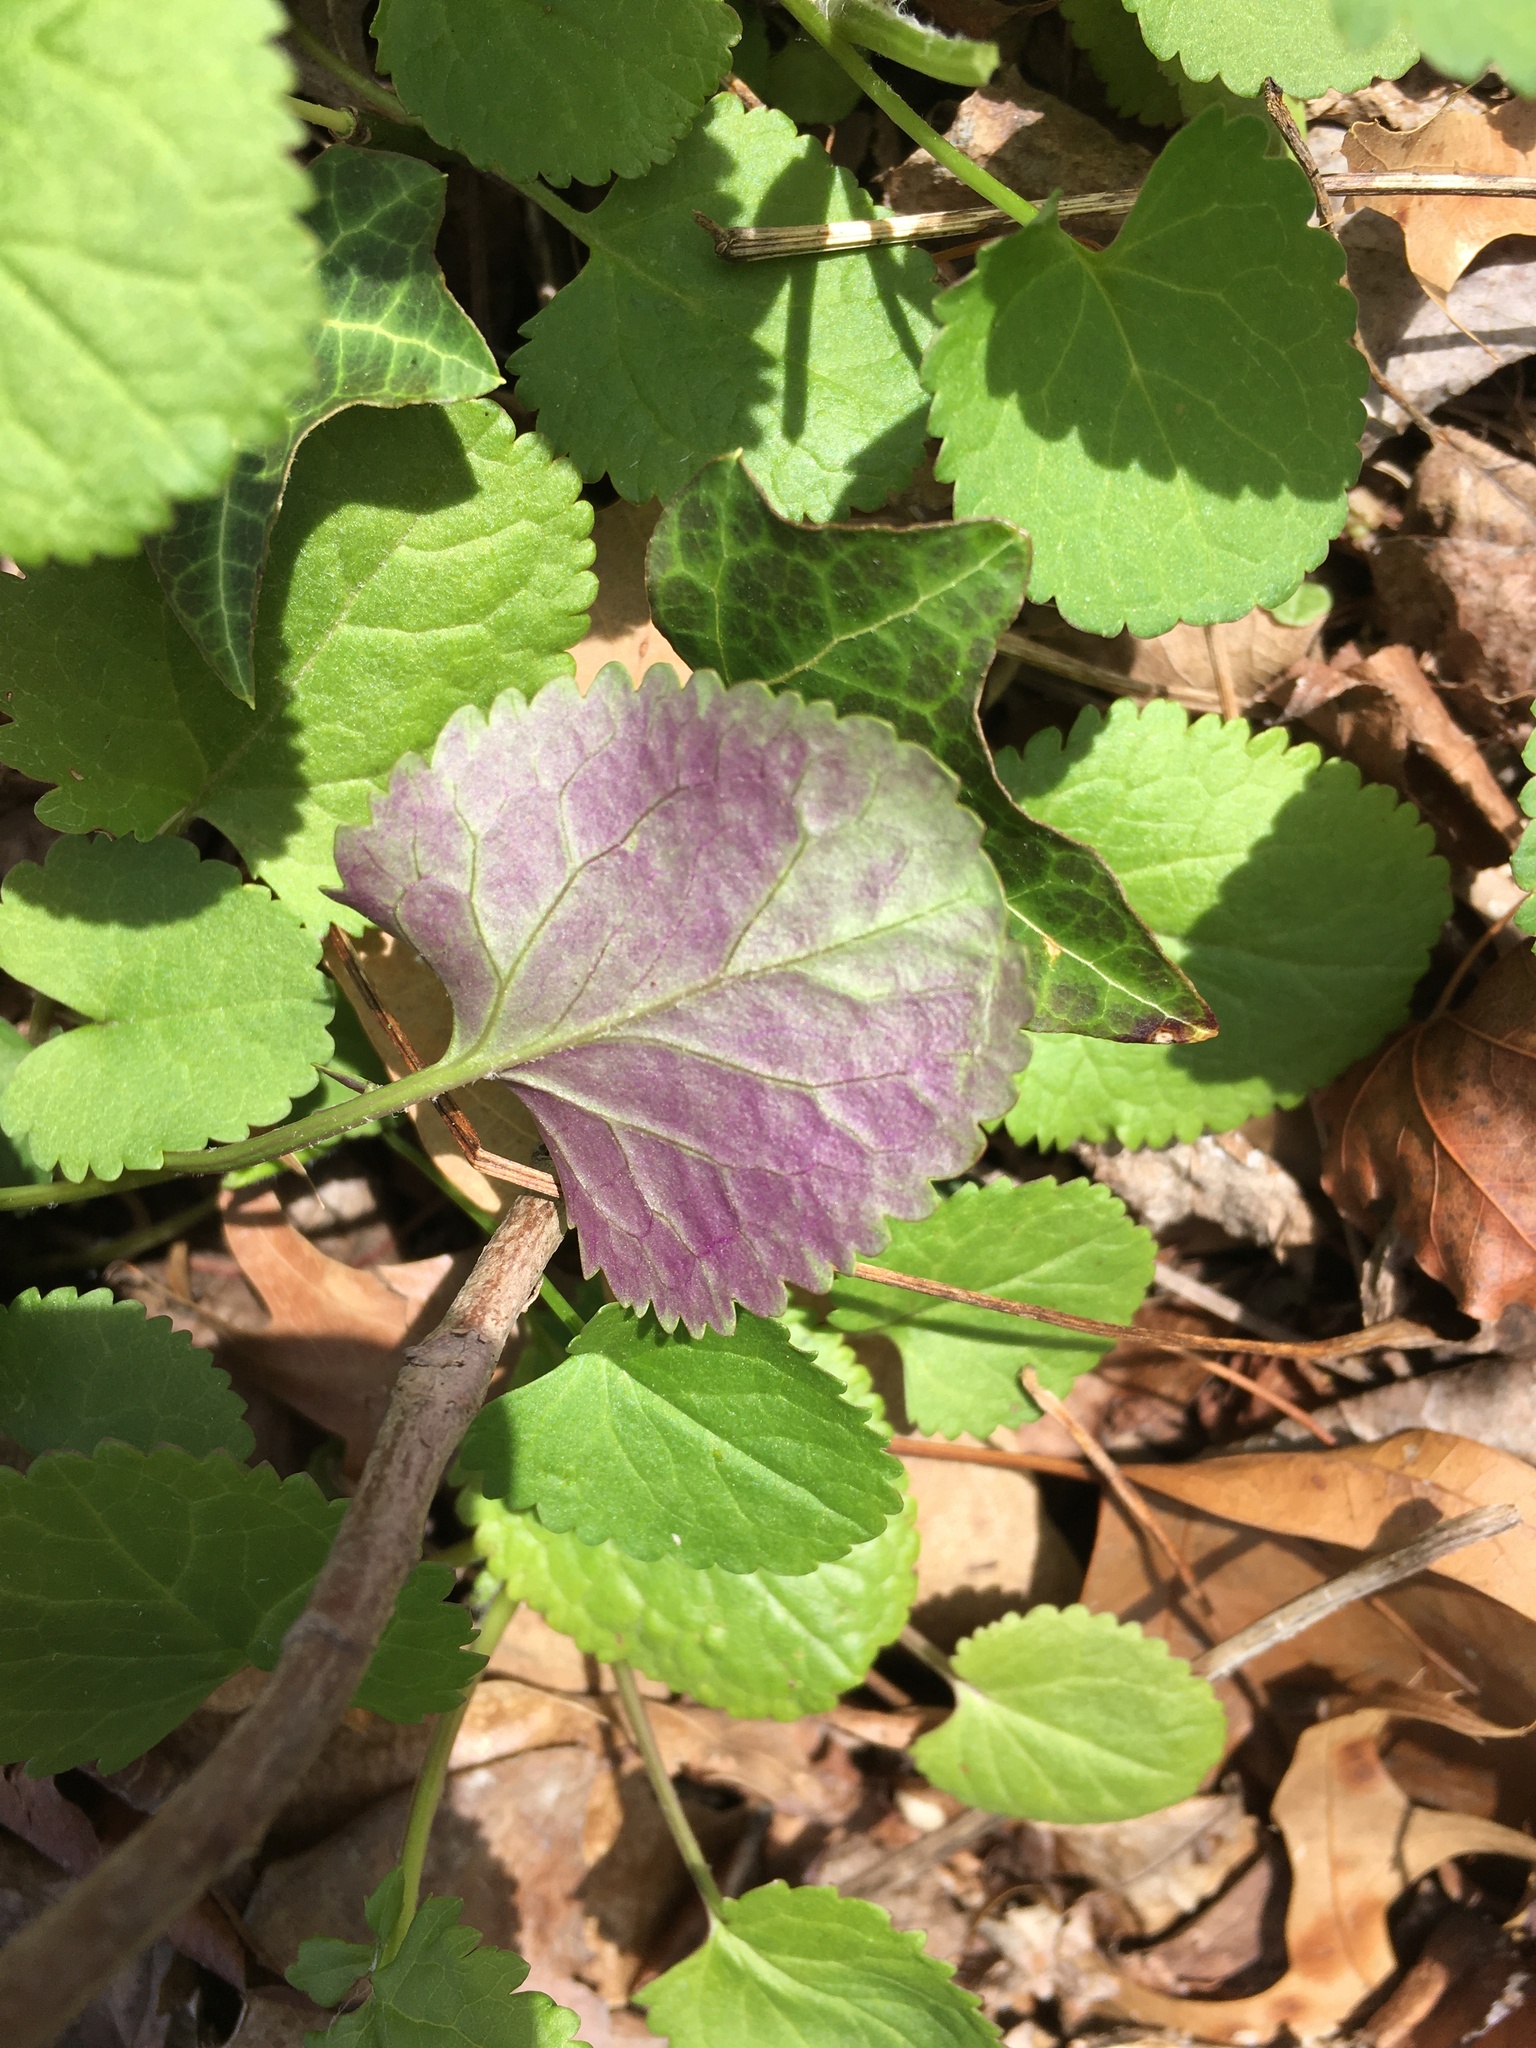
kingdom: Plantae
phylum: Tracheophyta
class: Magnoliopsida
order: Asterales
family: Asteraceae
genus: Packera
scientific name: Packera aurea
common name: Golden groundsel
